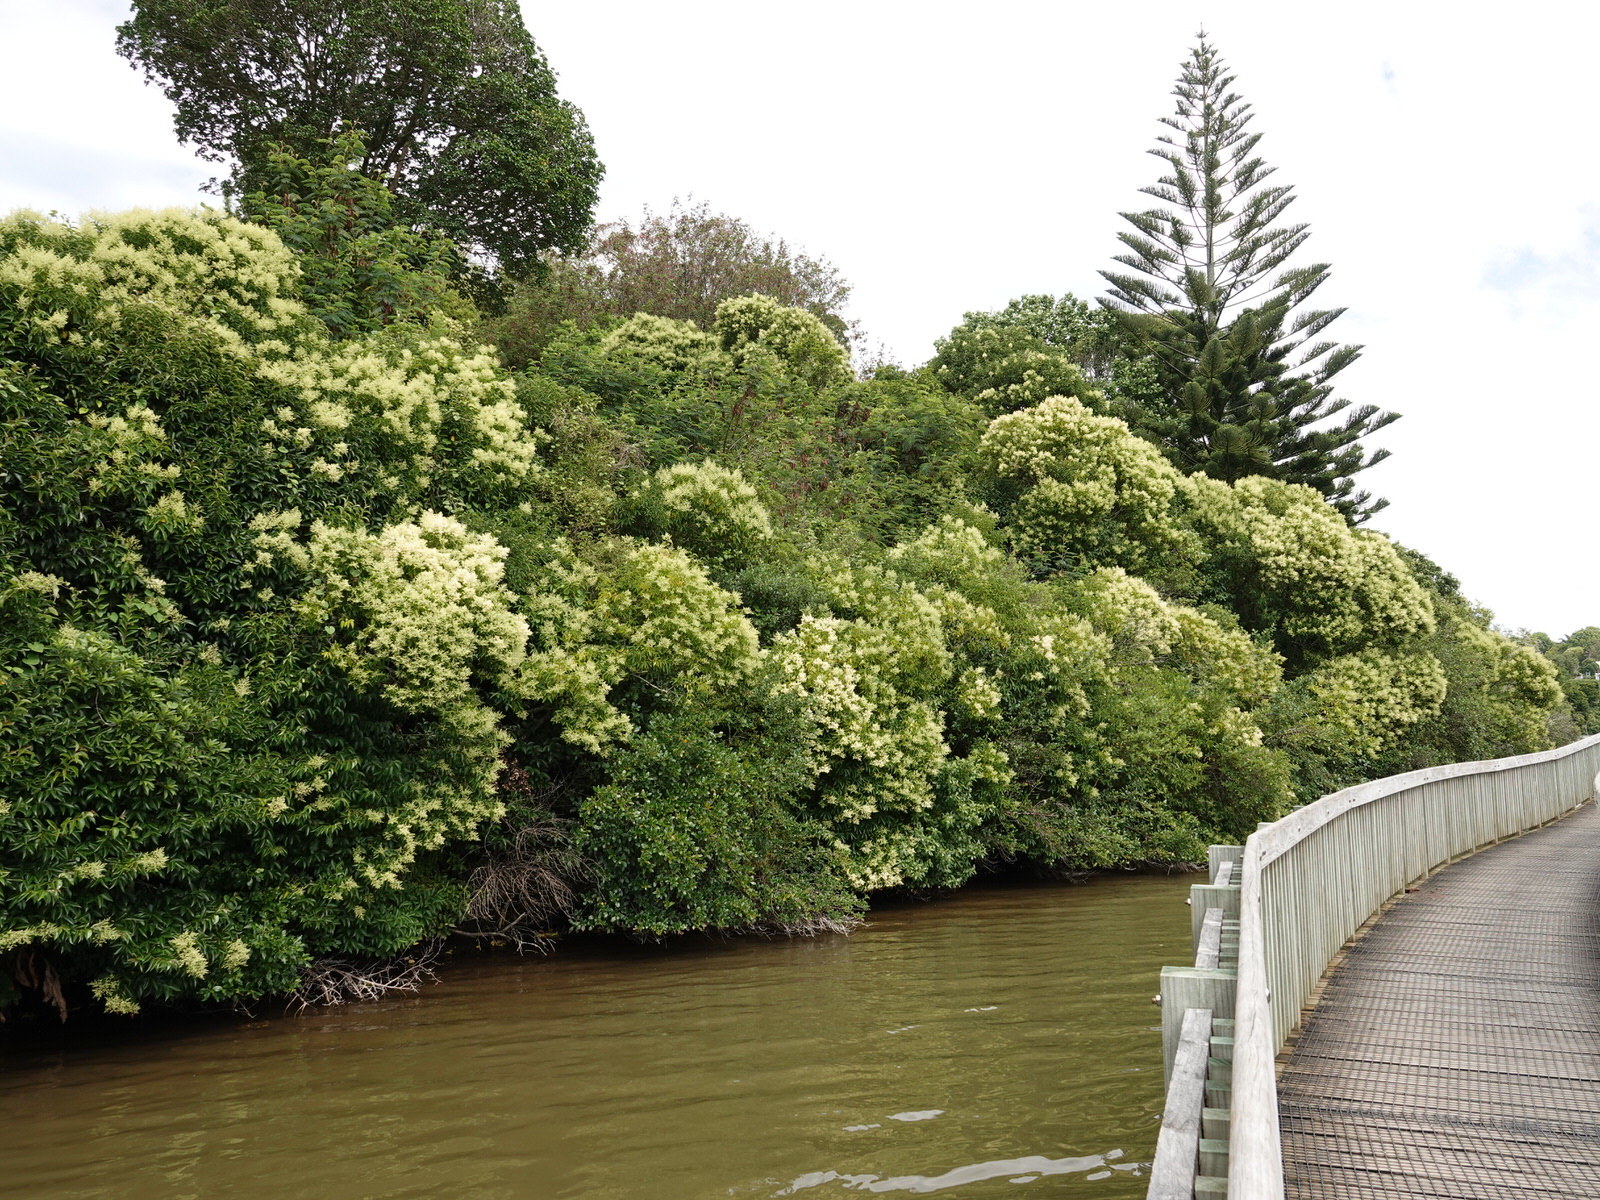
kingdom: Plantae
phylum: Tracheophyta
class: Magnoliopsida
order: Lamiales
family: Oleaceae
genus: Ligustrum
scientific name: Ligustrum lucidum
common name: Glossy privet
